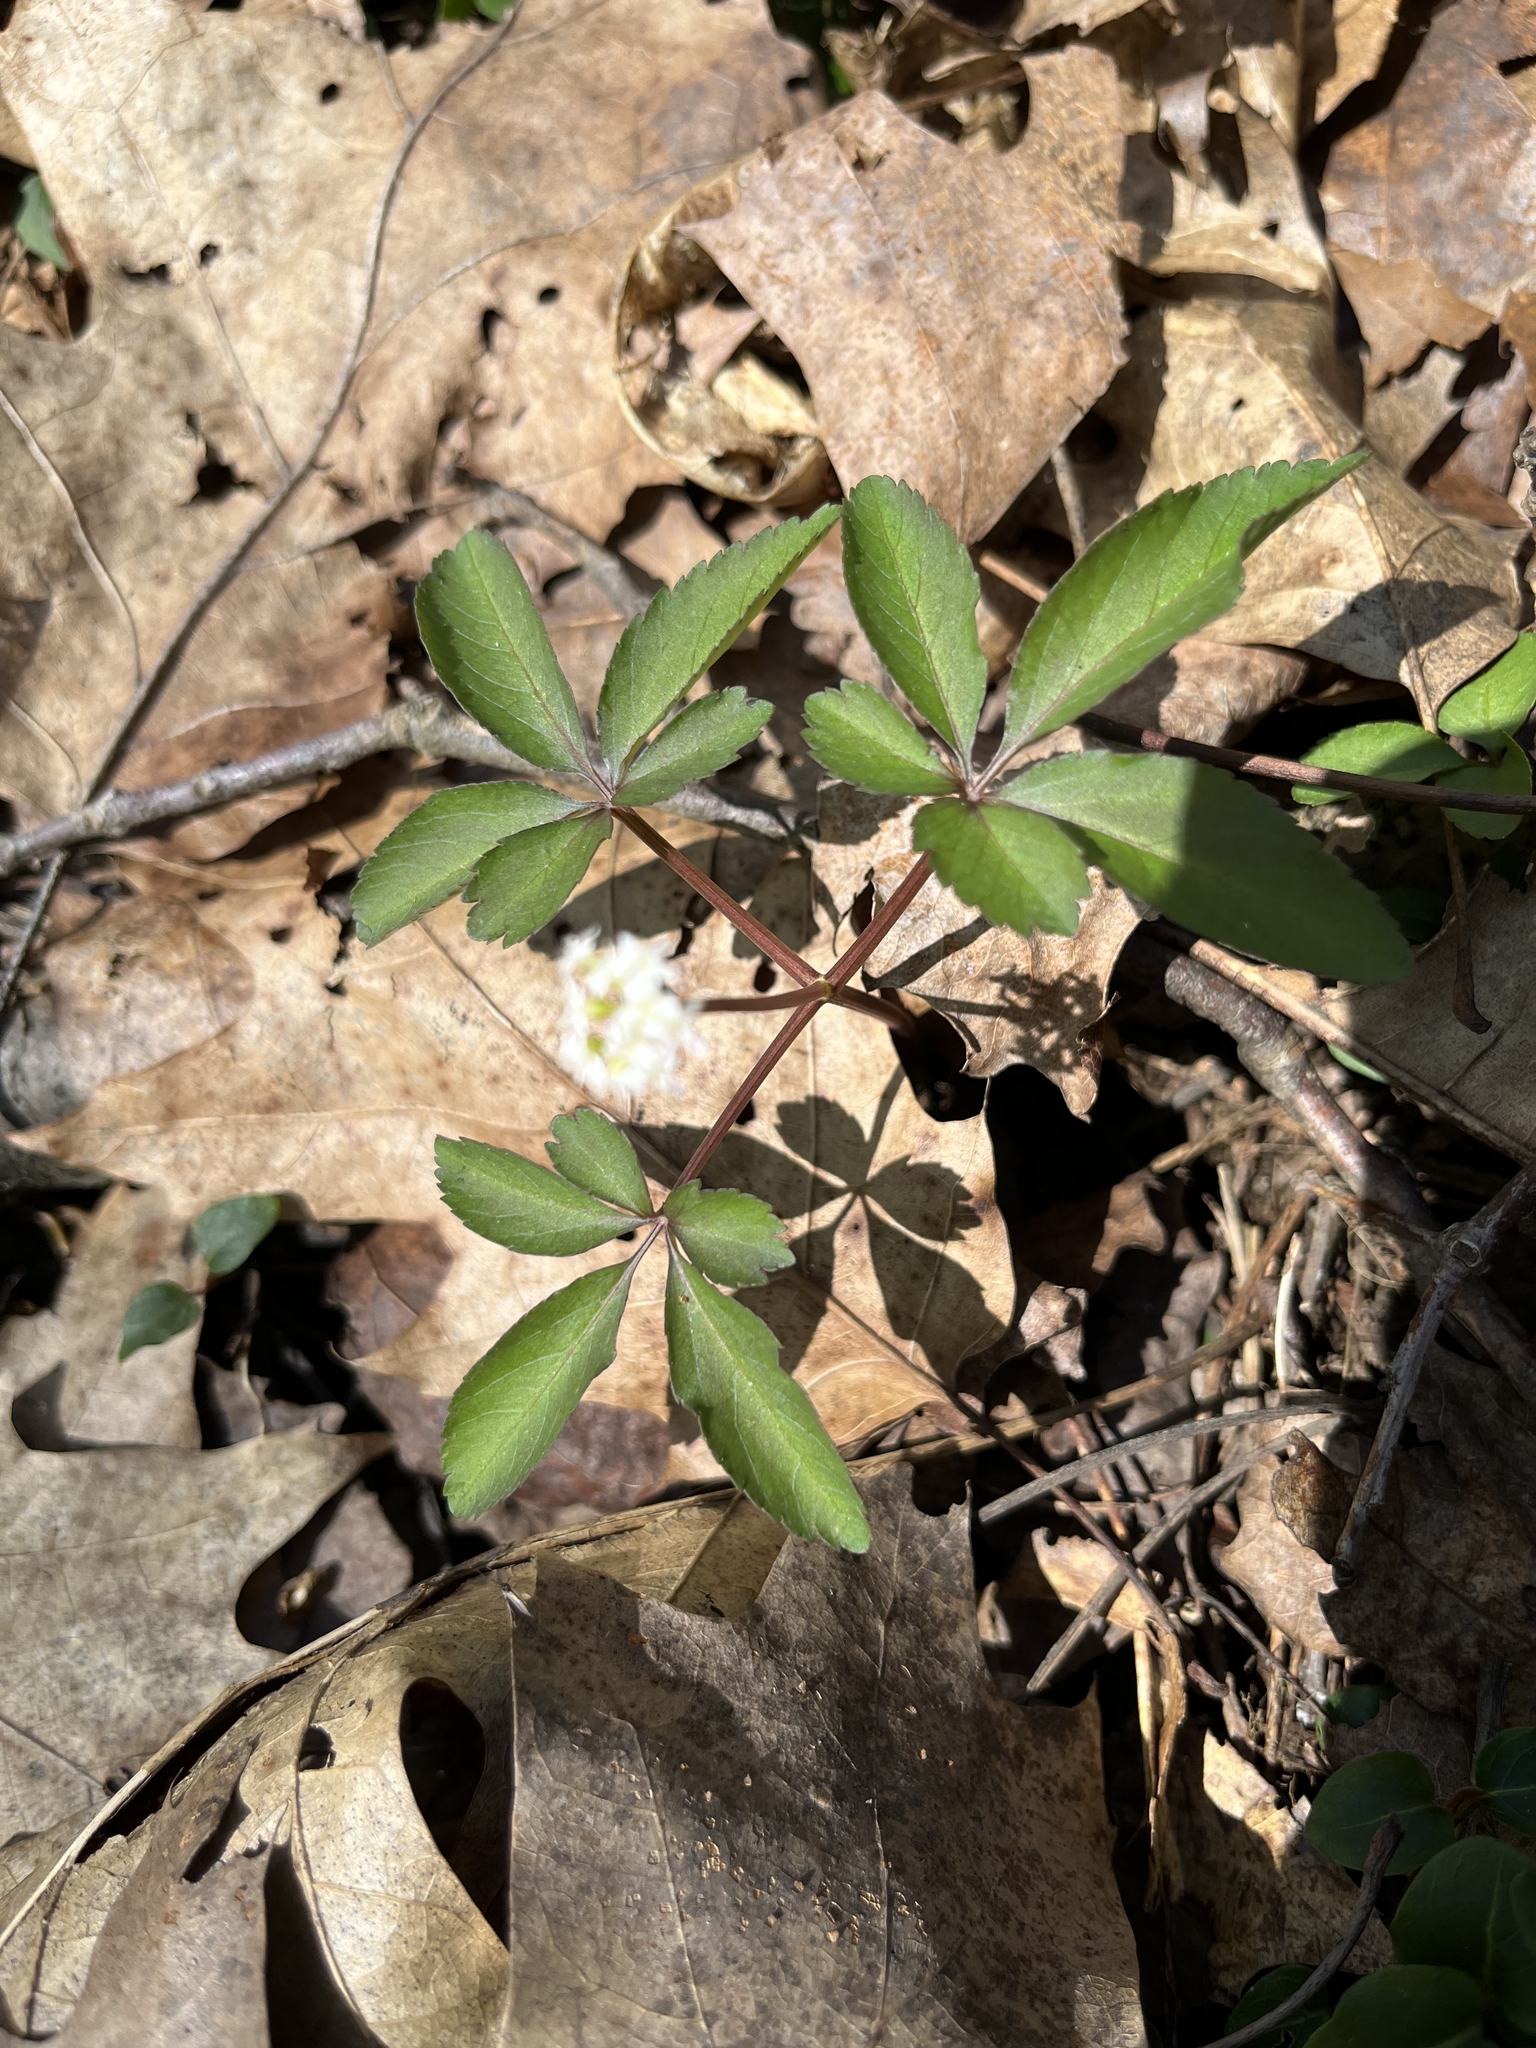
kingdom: Plantae
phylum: Tracheophyta
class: Magnoliopsida
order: Apiales
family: Araliaceae
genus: Panax
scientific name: Panax trifolius
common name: Dwarf ginseng
